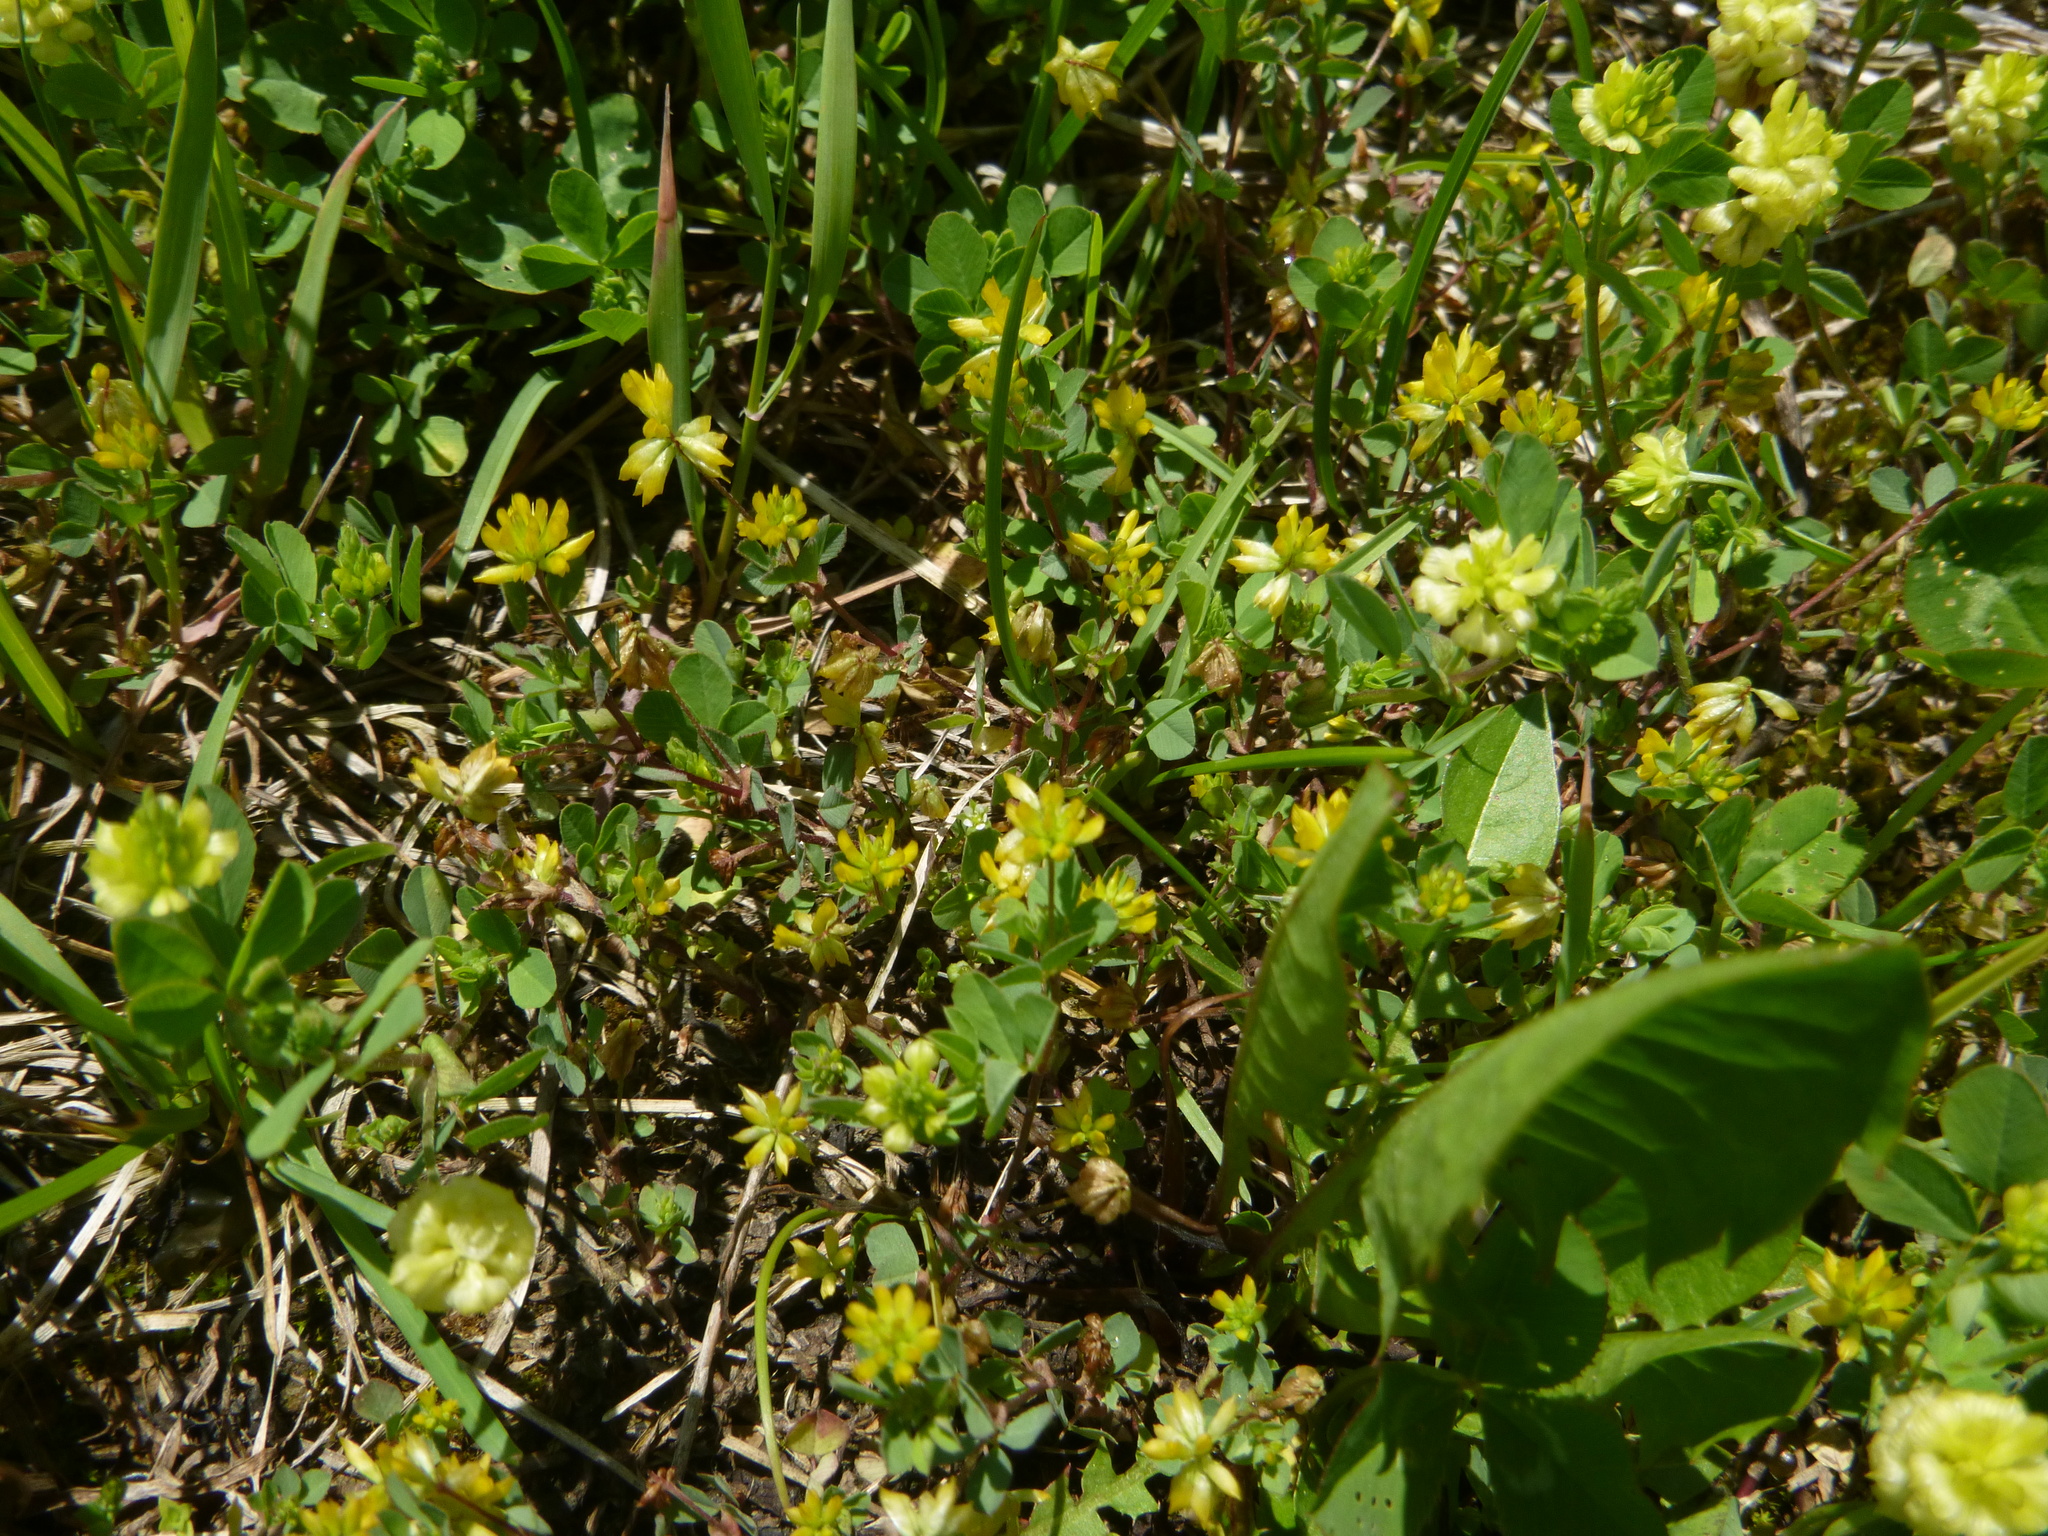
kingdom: Plantae
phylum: Tracheophyta
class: Magnoliopsida
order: Fabales
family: Fabaceae
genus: Trifolium
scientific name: Trifolium dubium
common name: Suckling clover
